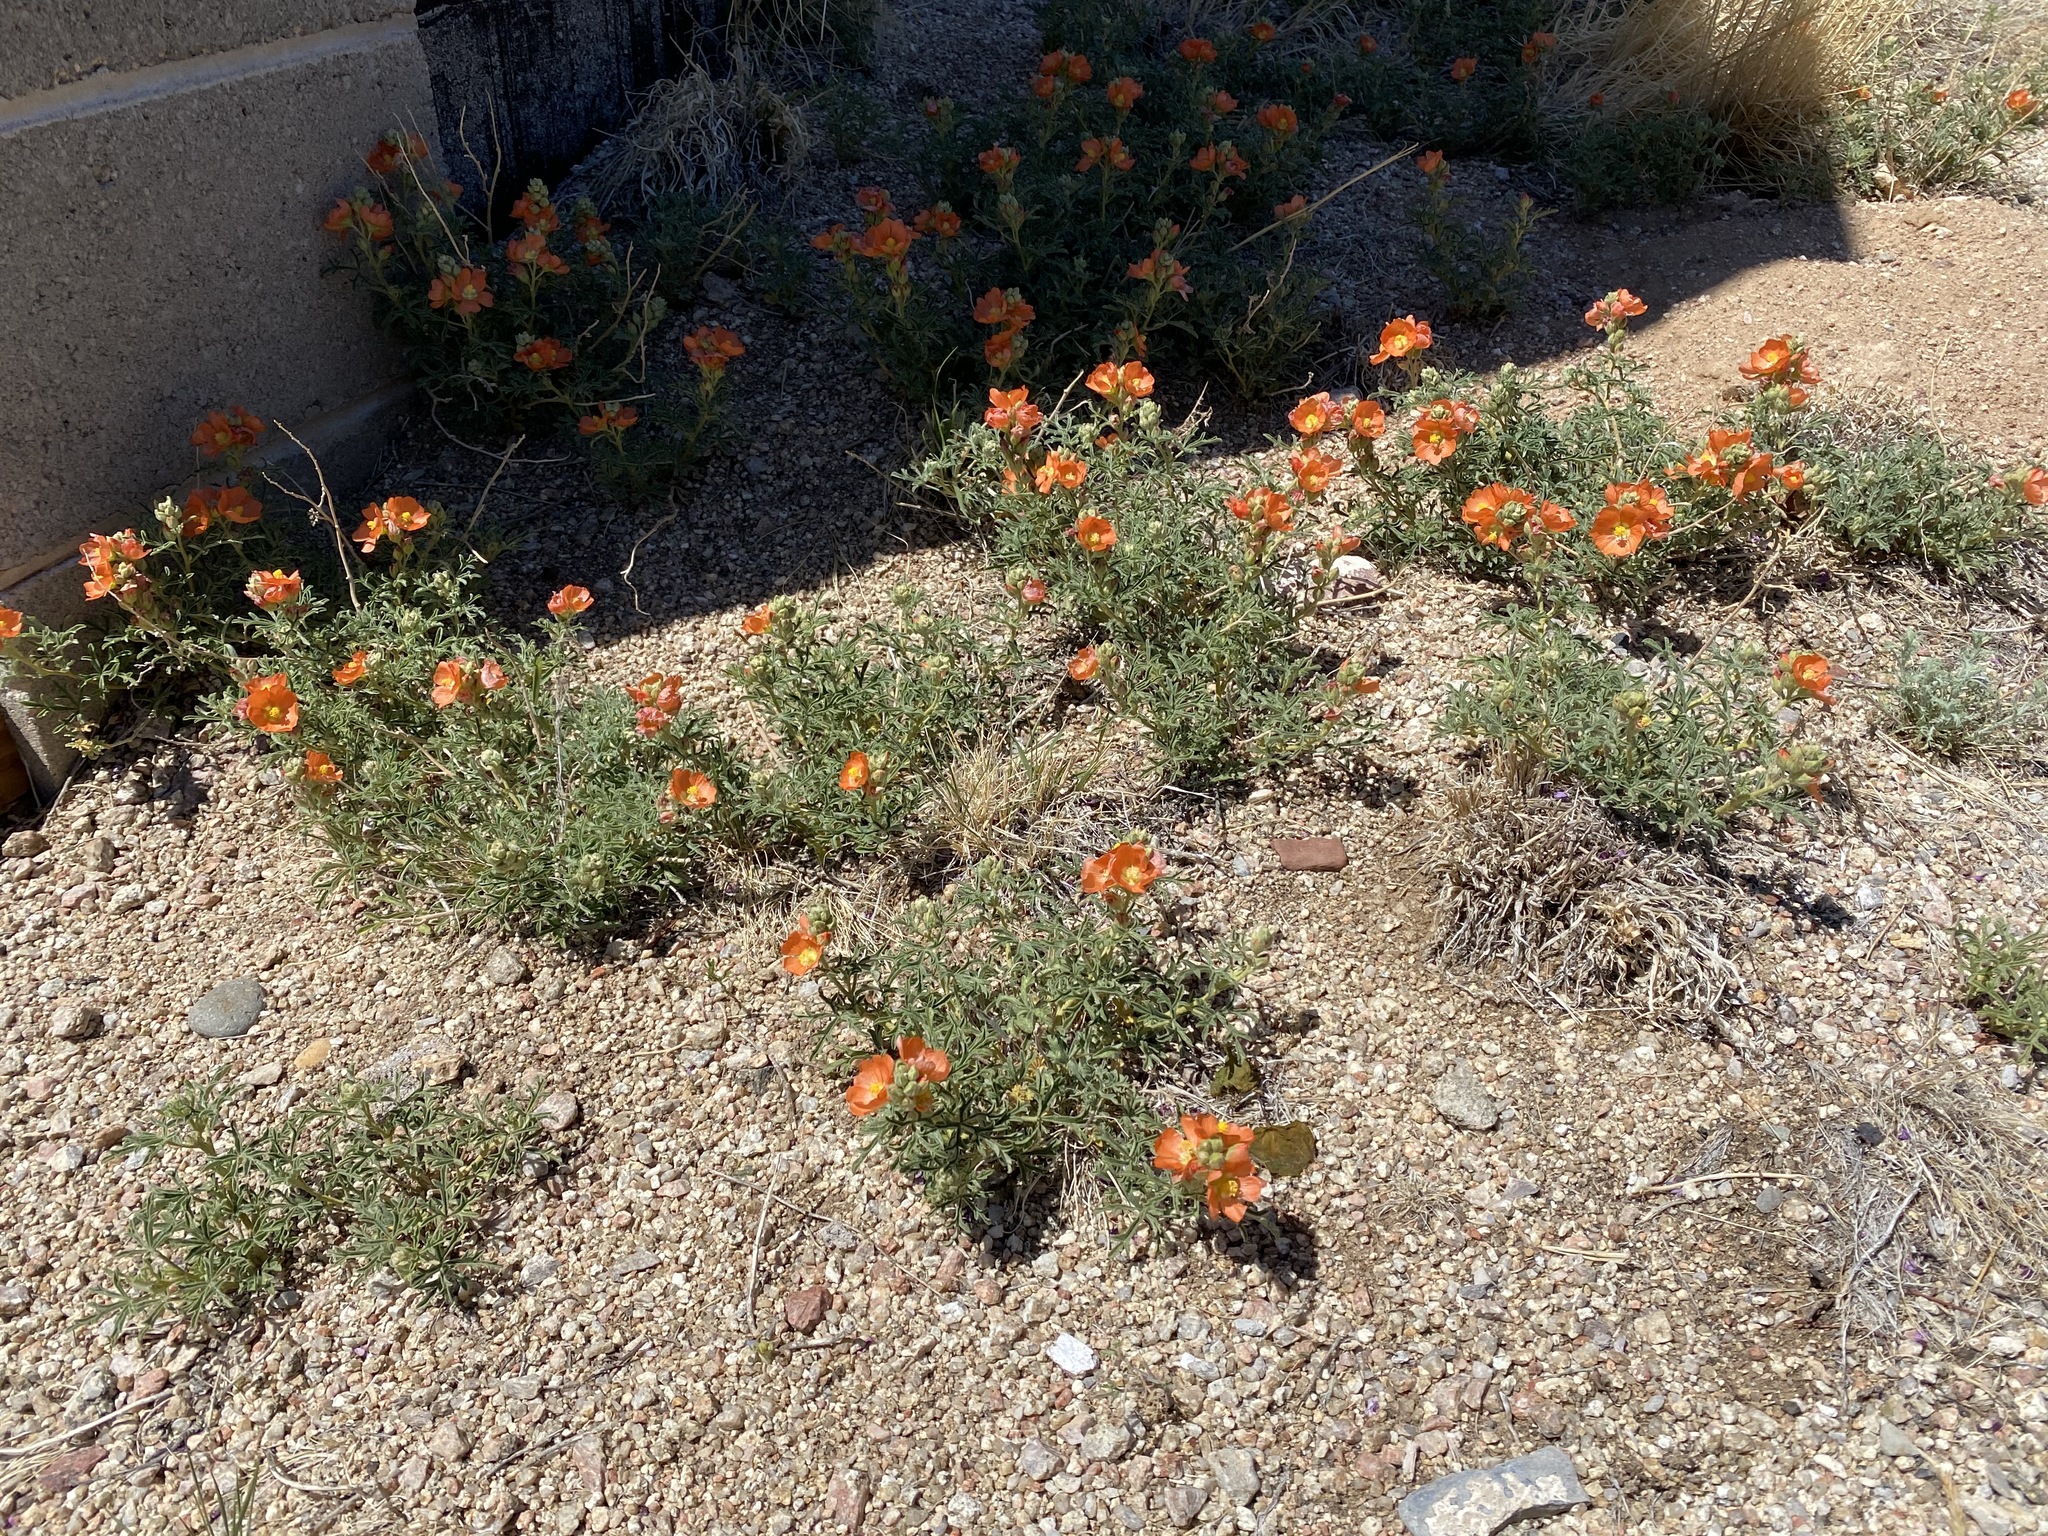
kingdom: Plantae
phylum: Tracheophyta
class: Magnoliopsida
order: Malvales
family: Malvaceae
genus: Sphaeralcea
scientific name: Sphaeralcea coccinea
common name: Moss-rose
